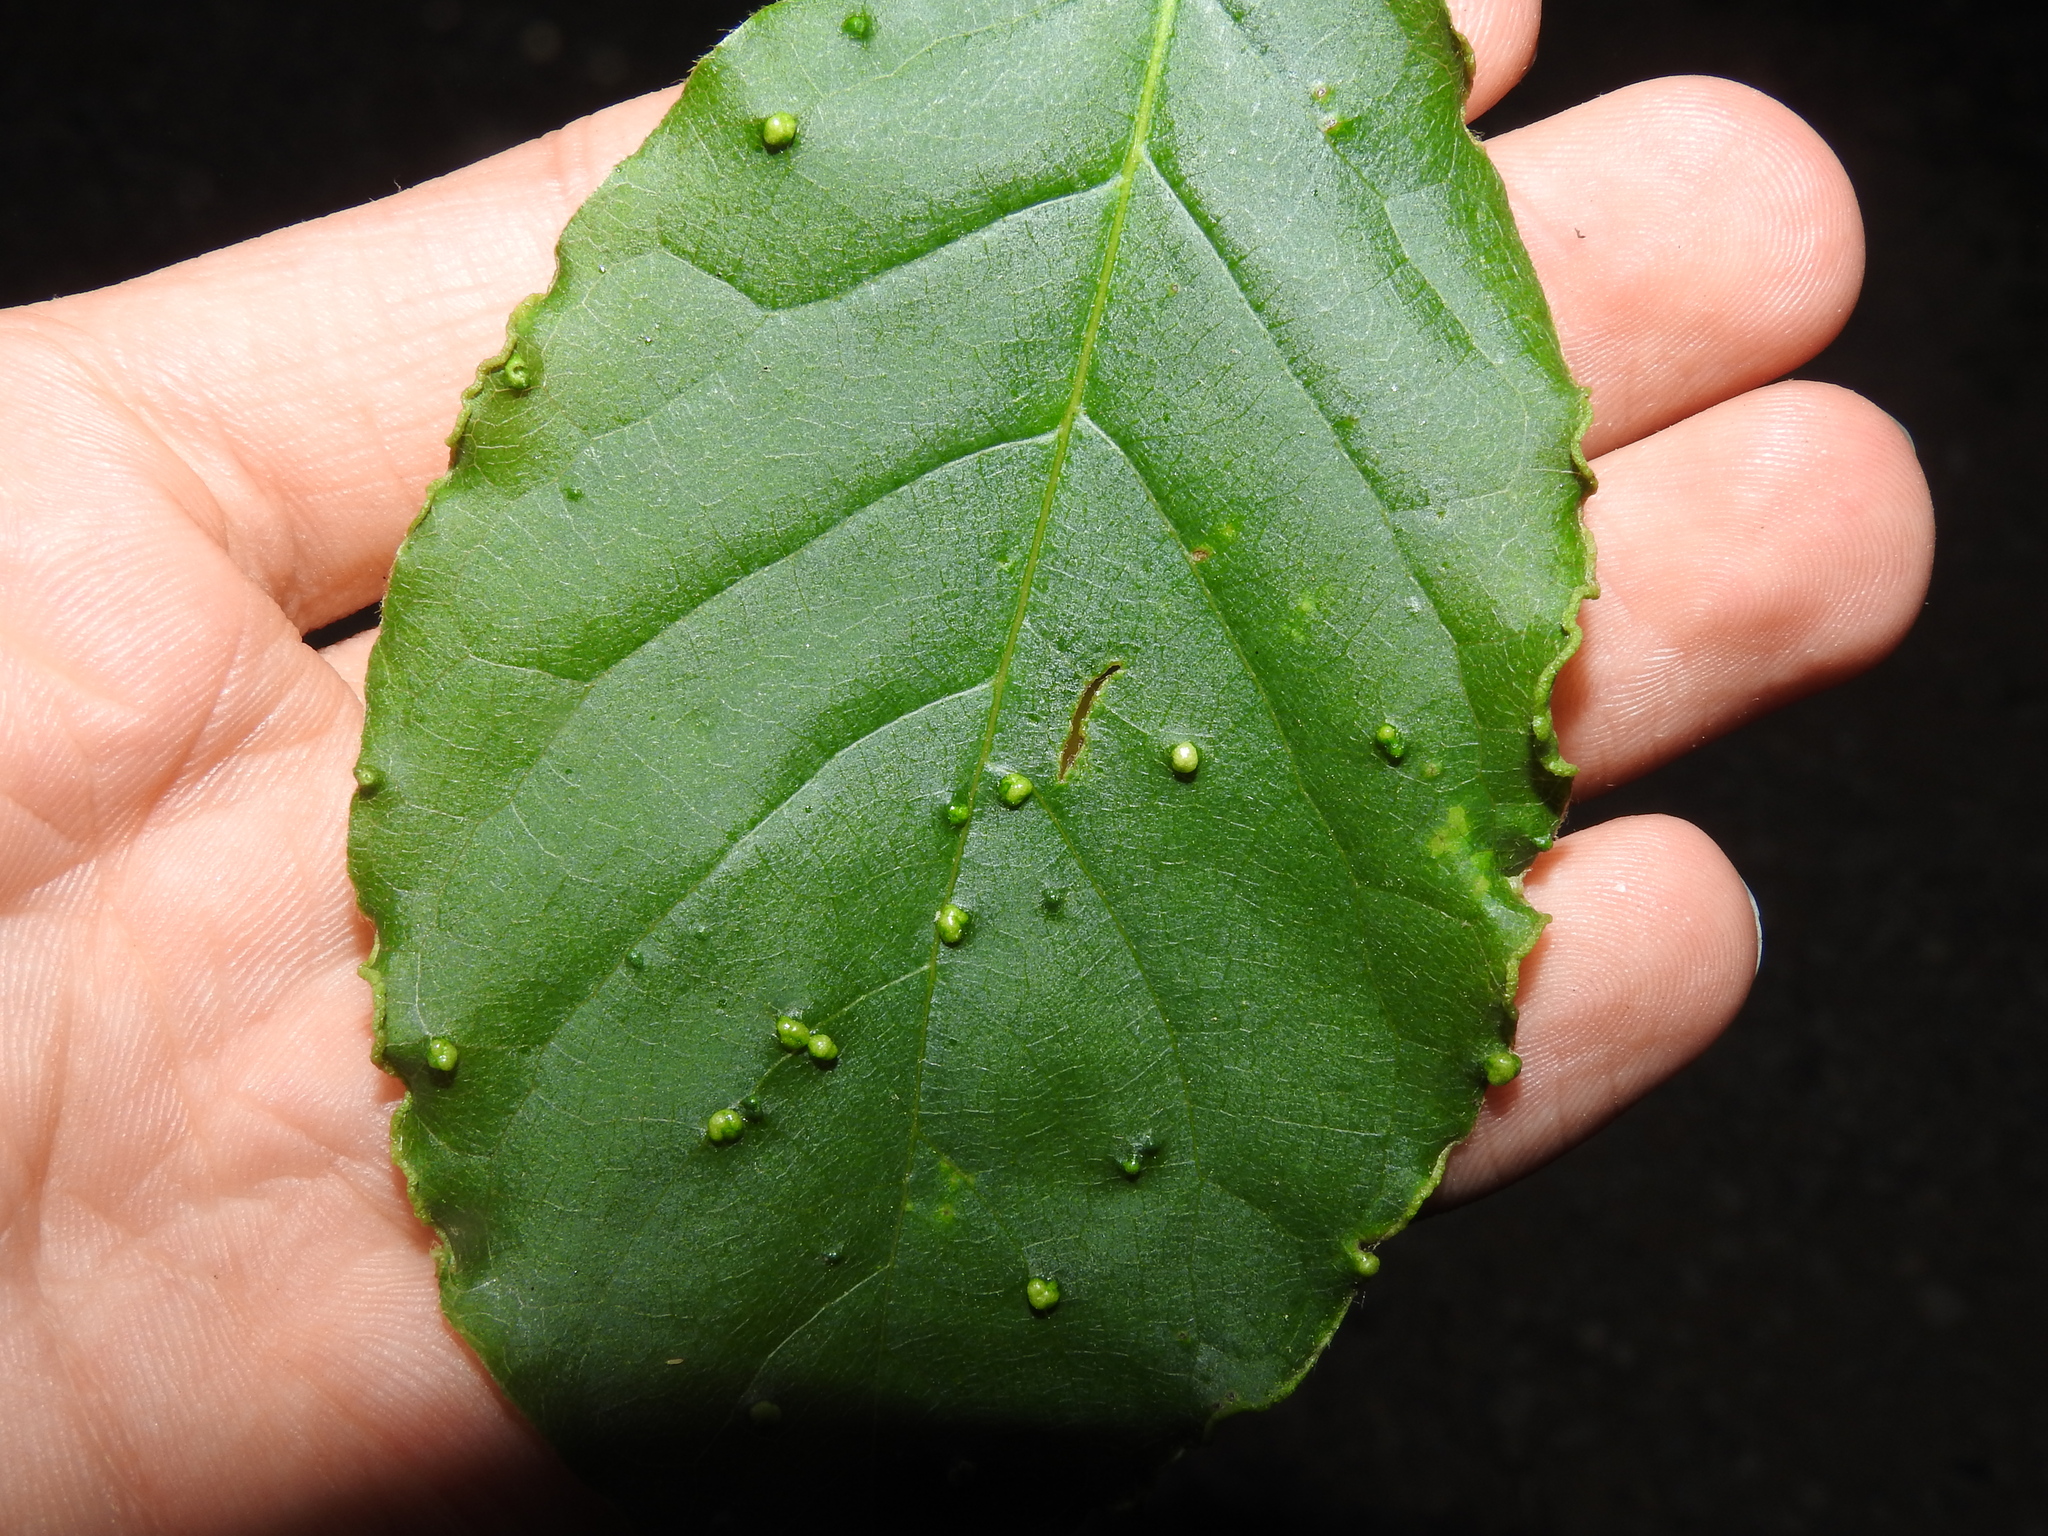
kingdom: Animalia
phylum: Arthropoda
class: Arachnida
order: Trombidiformes
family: Eriophyidae
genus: Aceria
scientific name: Aceria
